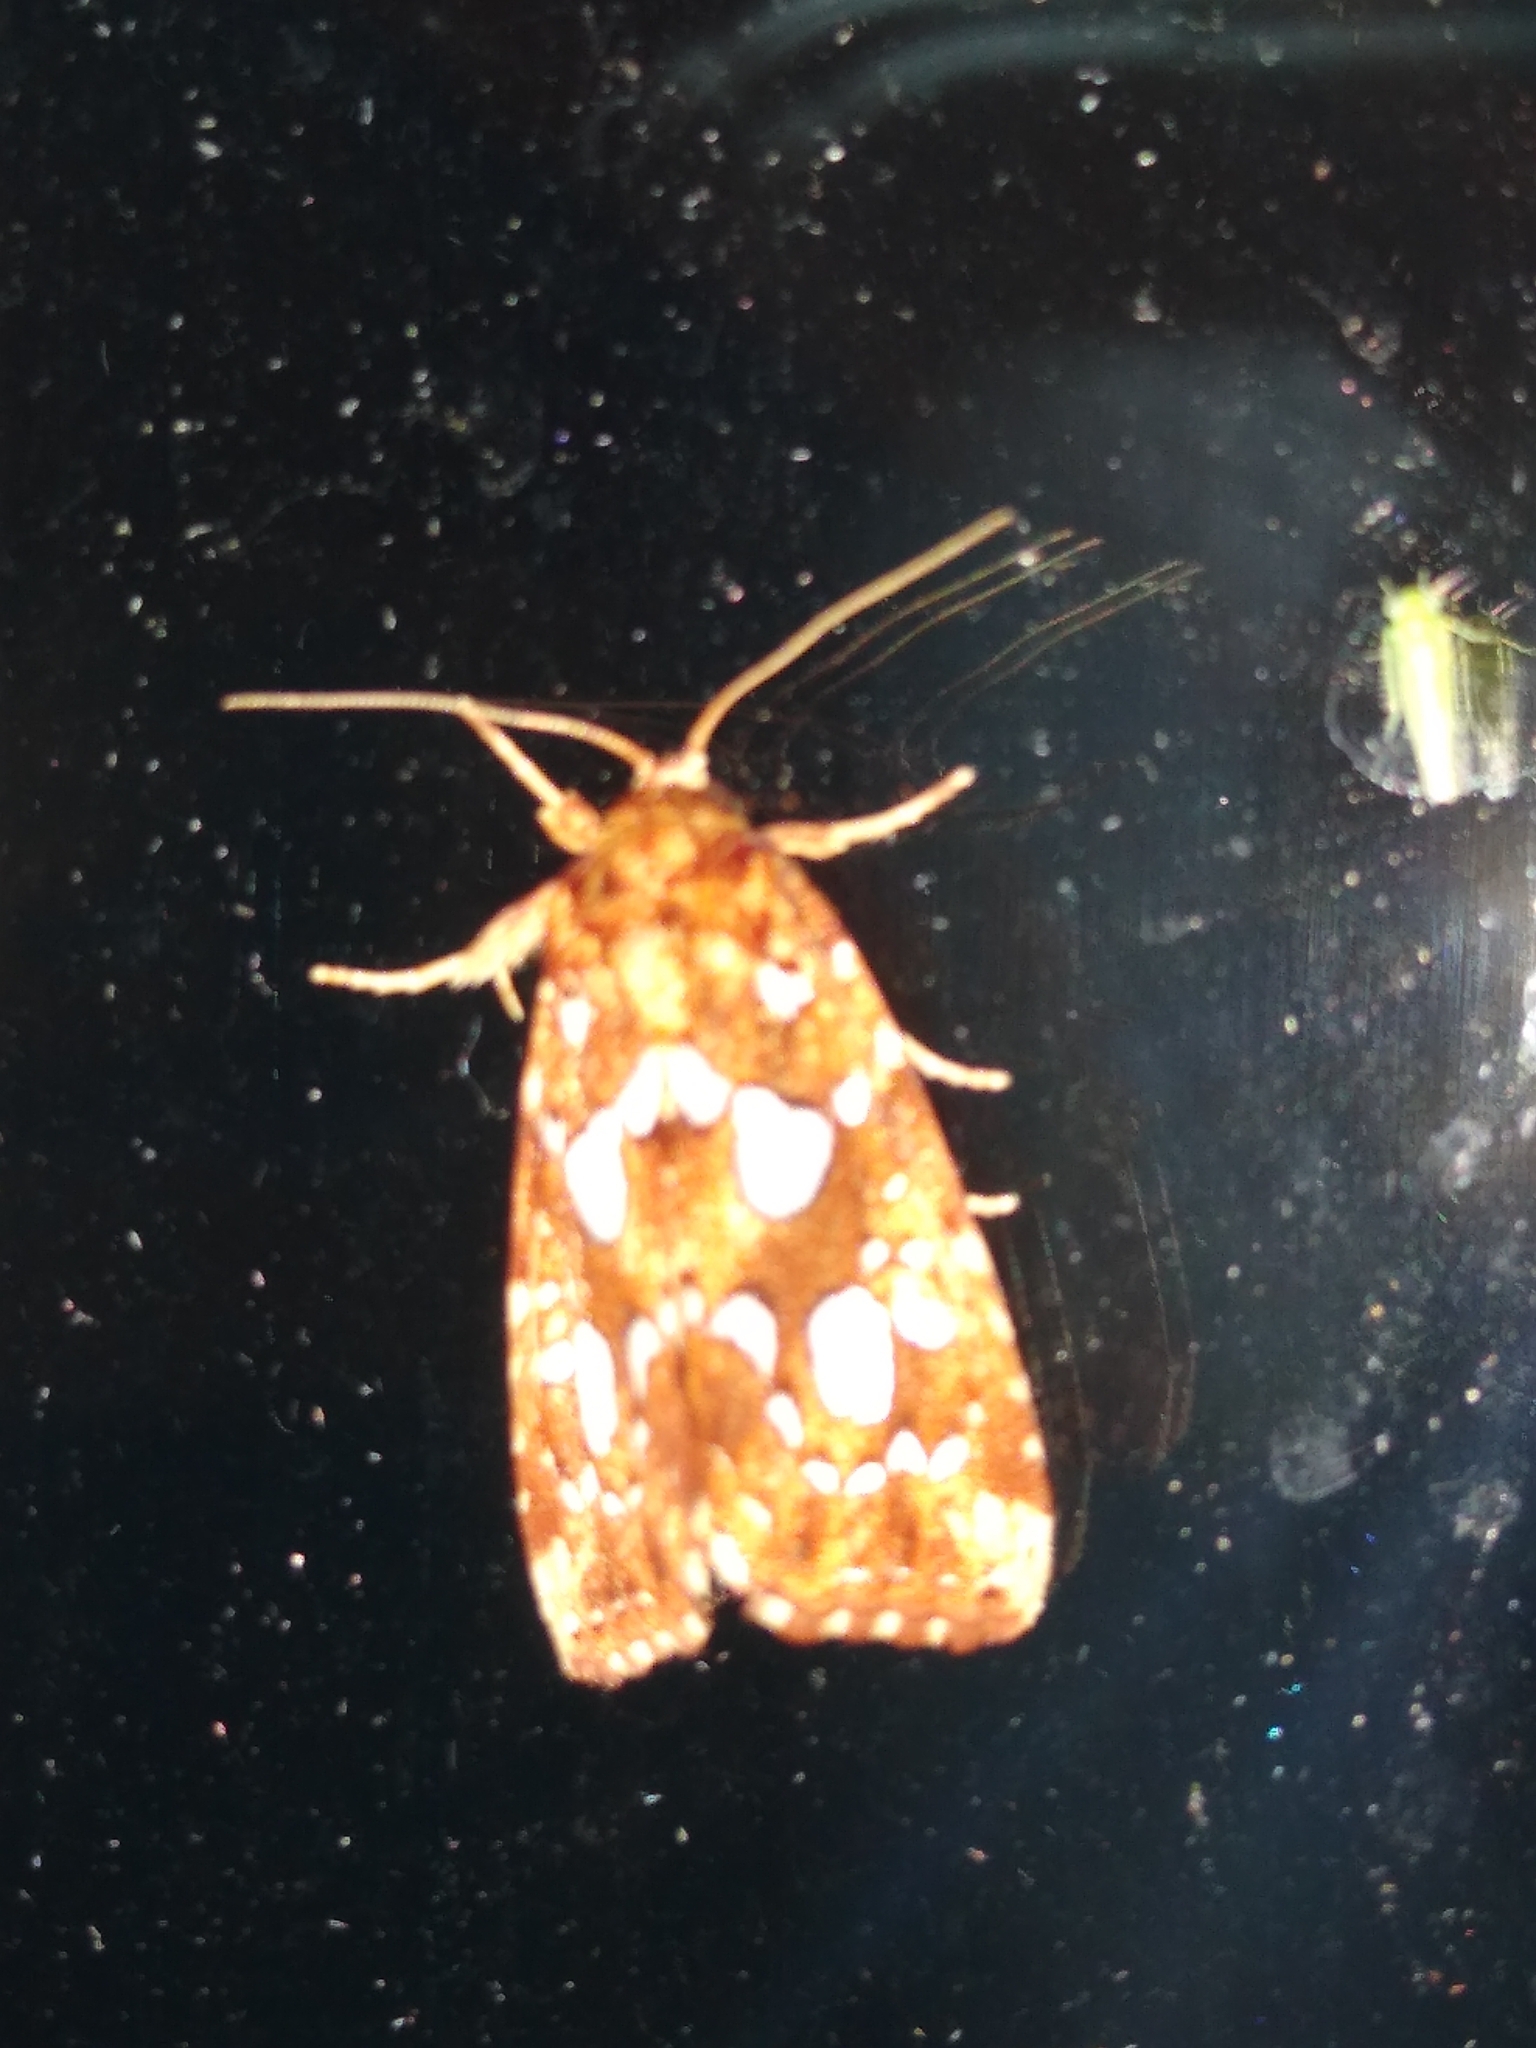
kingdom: Animalia
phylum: Arthropoda
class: Insecta
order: Lepidoptera
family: Noctuidae
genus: Callopistria
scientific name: Callopistria cordata
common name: Silver-spotted fern moth
